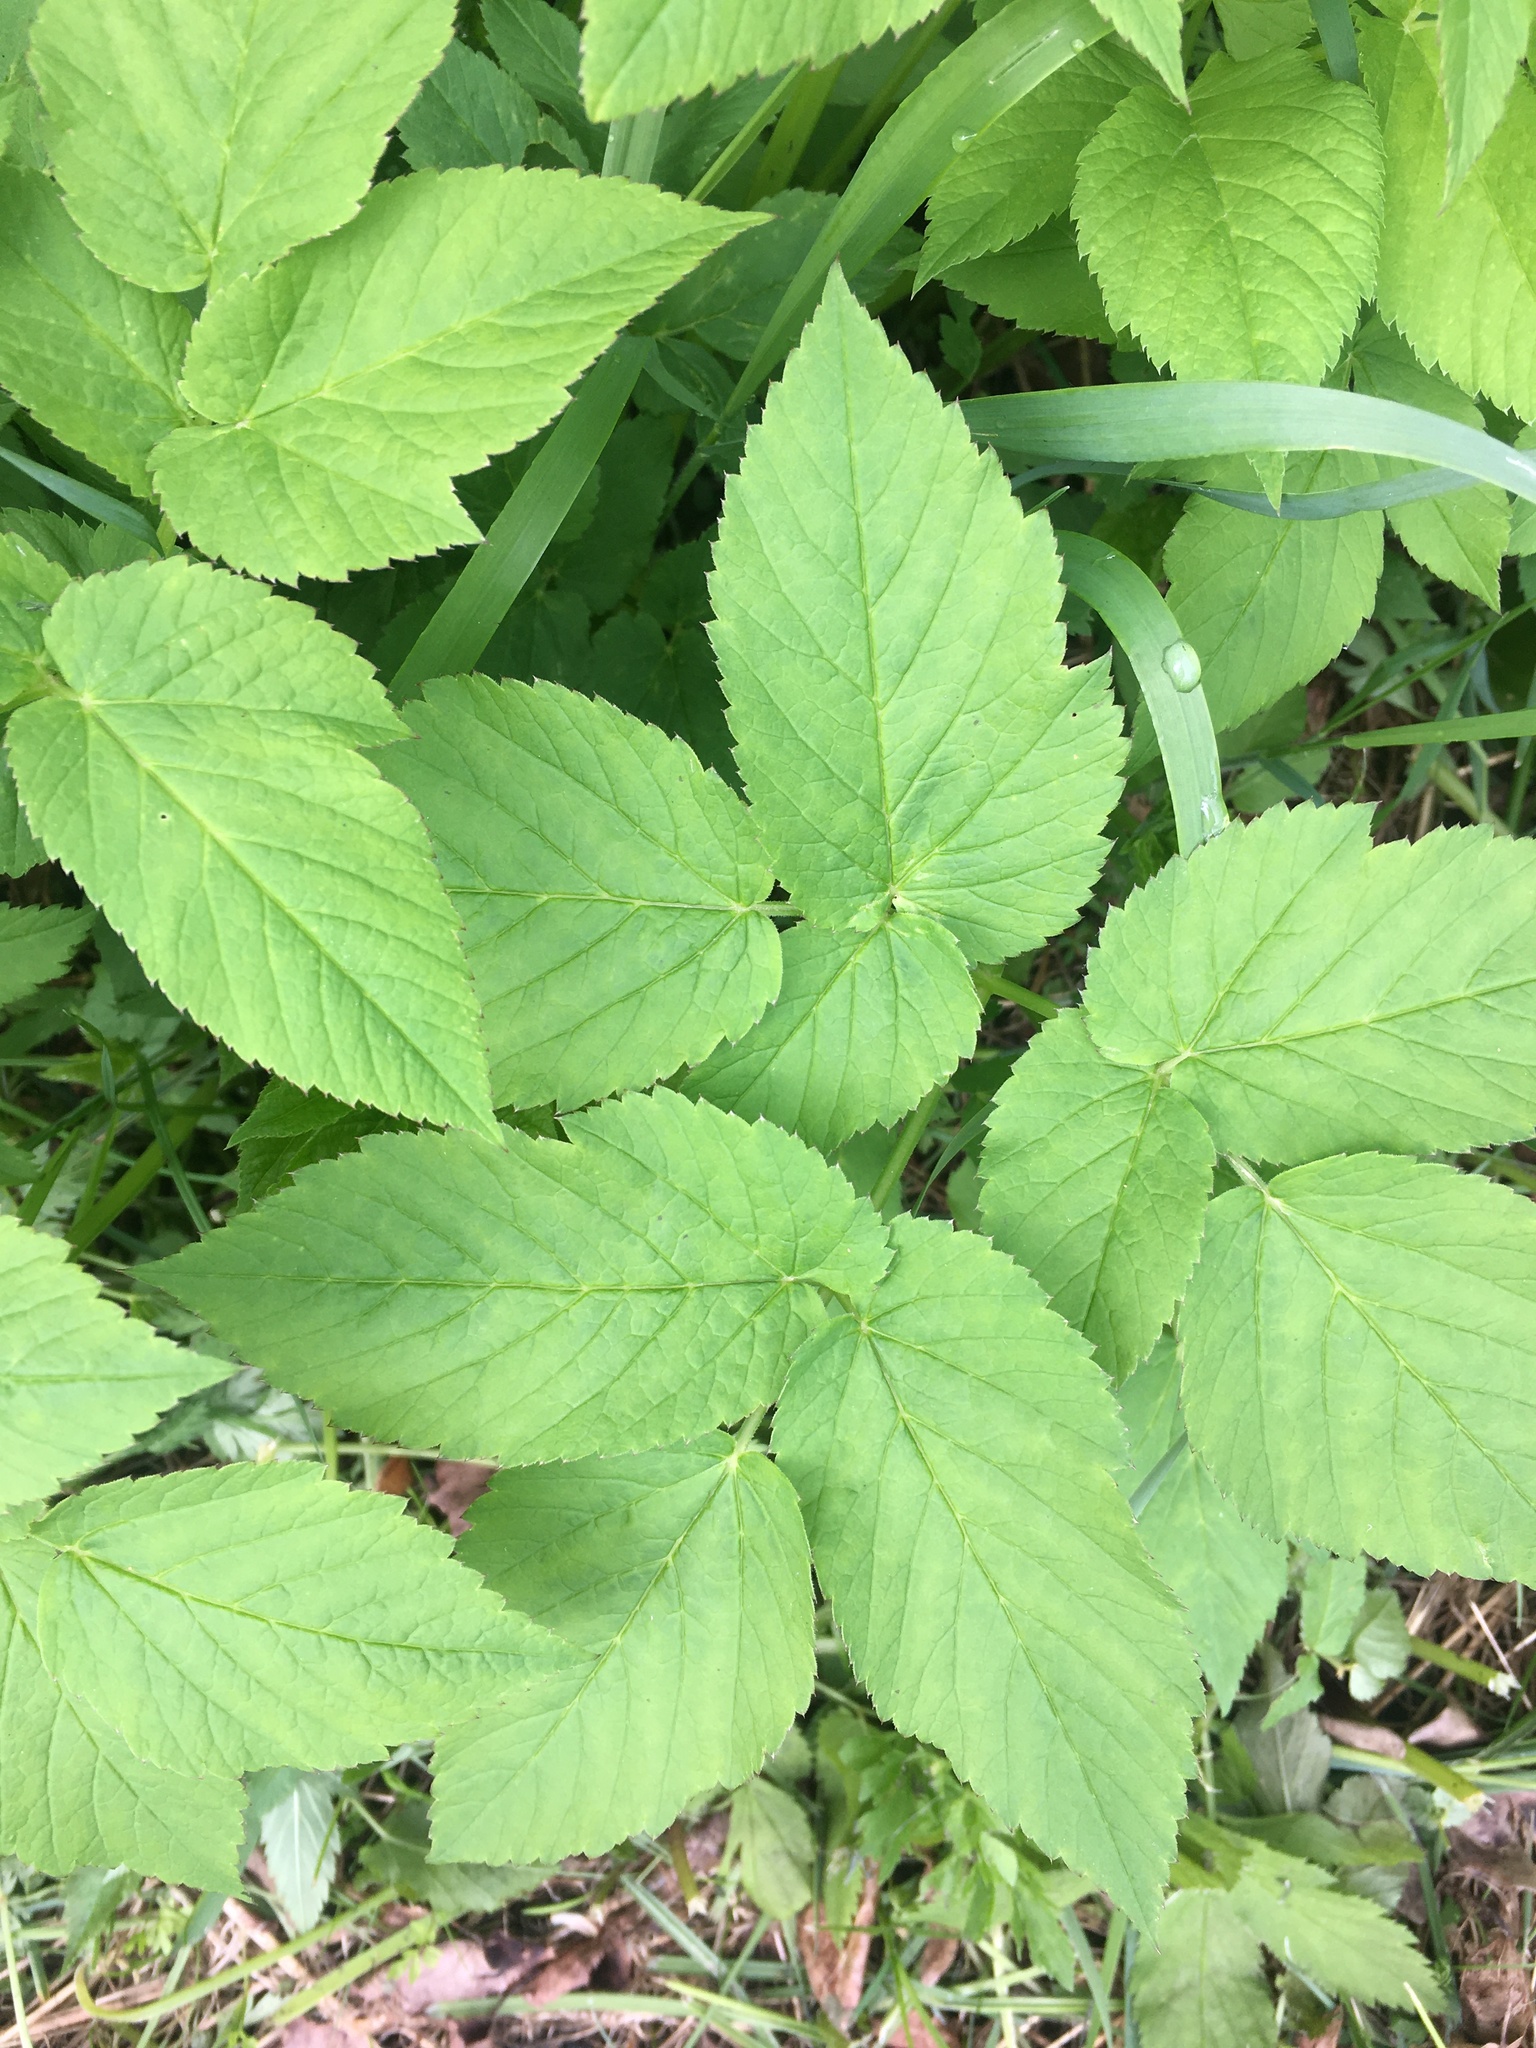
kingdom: Plantae
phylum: Tracheophyta
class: Magnoliopsida
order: Apiales
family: Apiaceae
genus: Aegopodium
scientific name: Aegopodium podagraria
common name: Ground-elder
